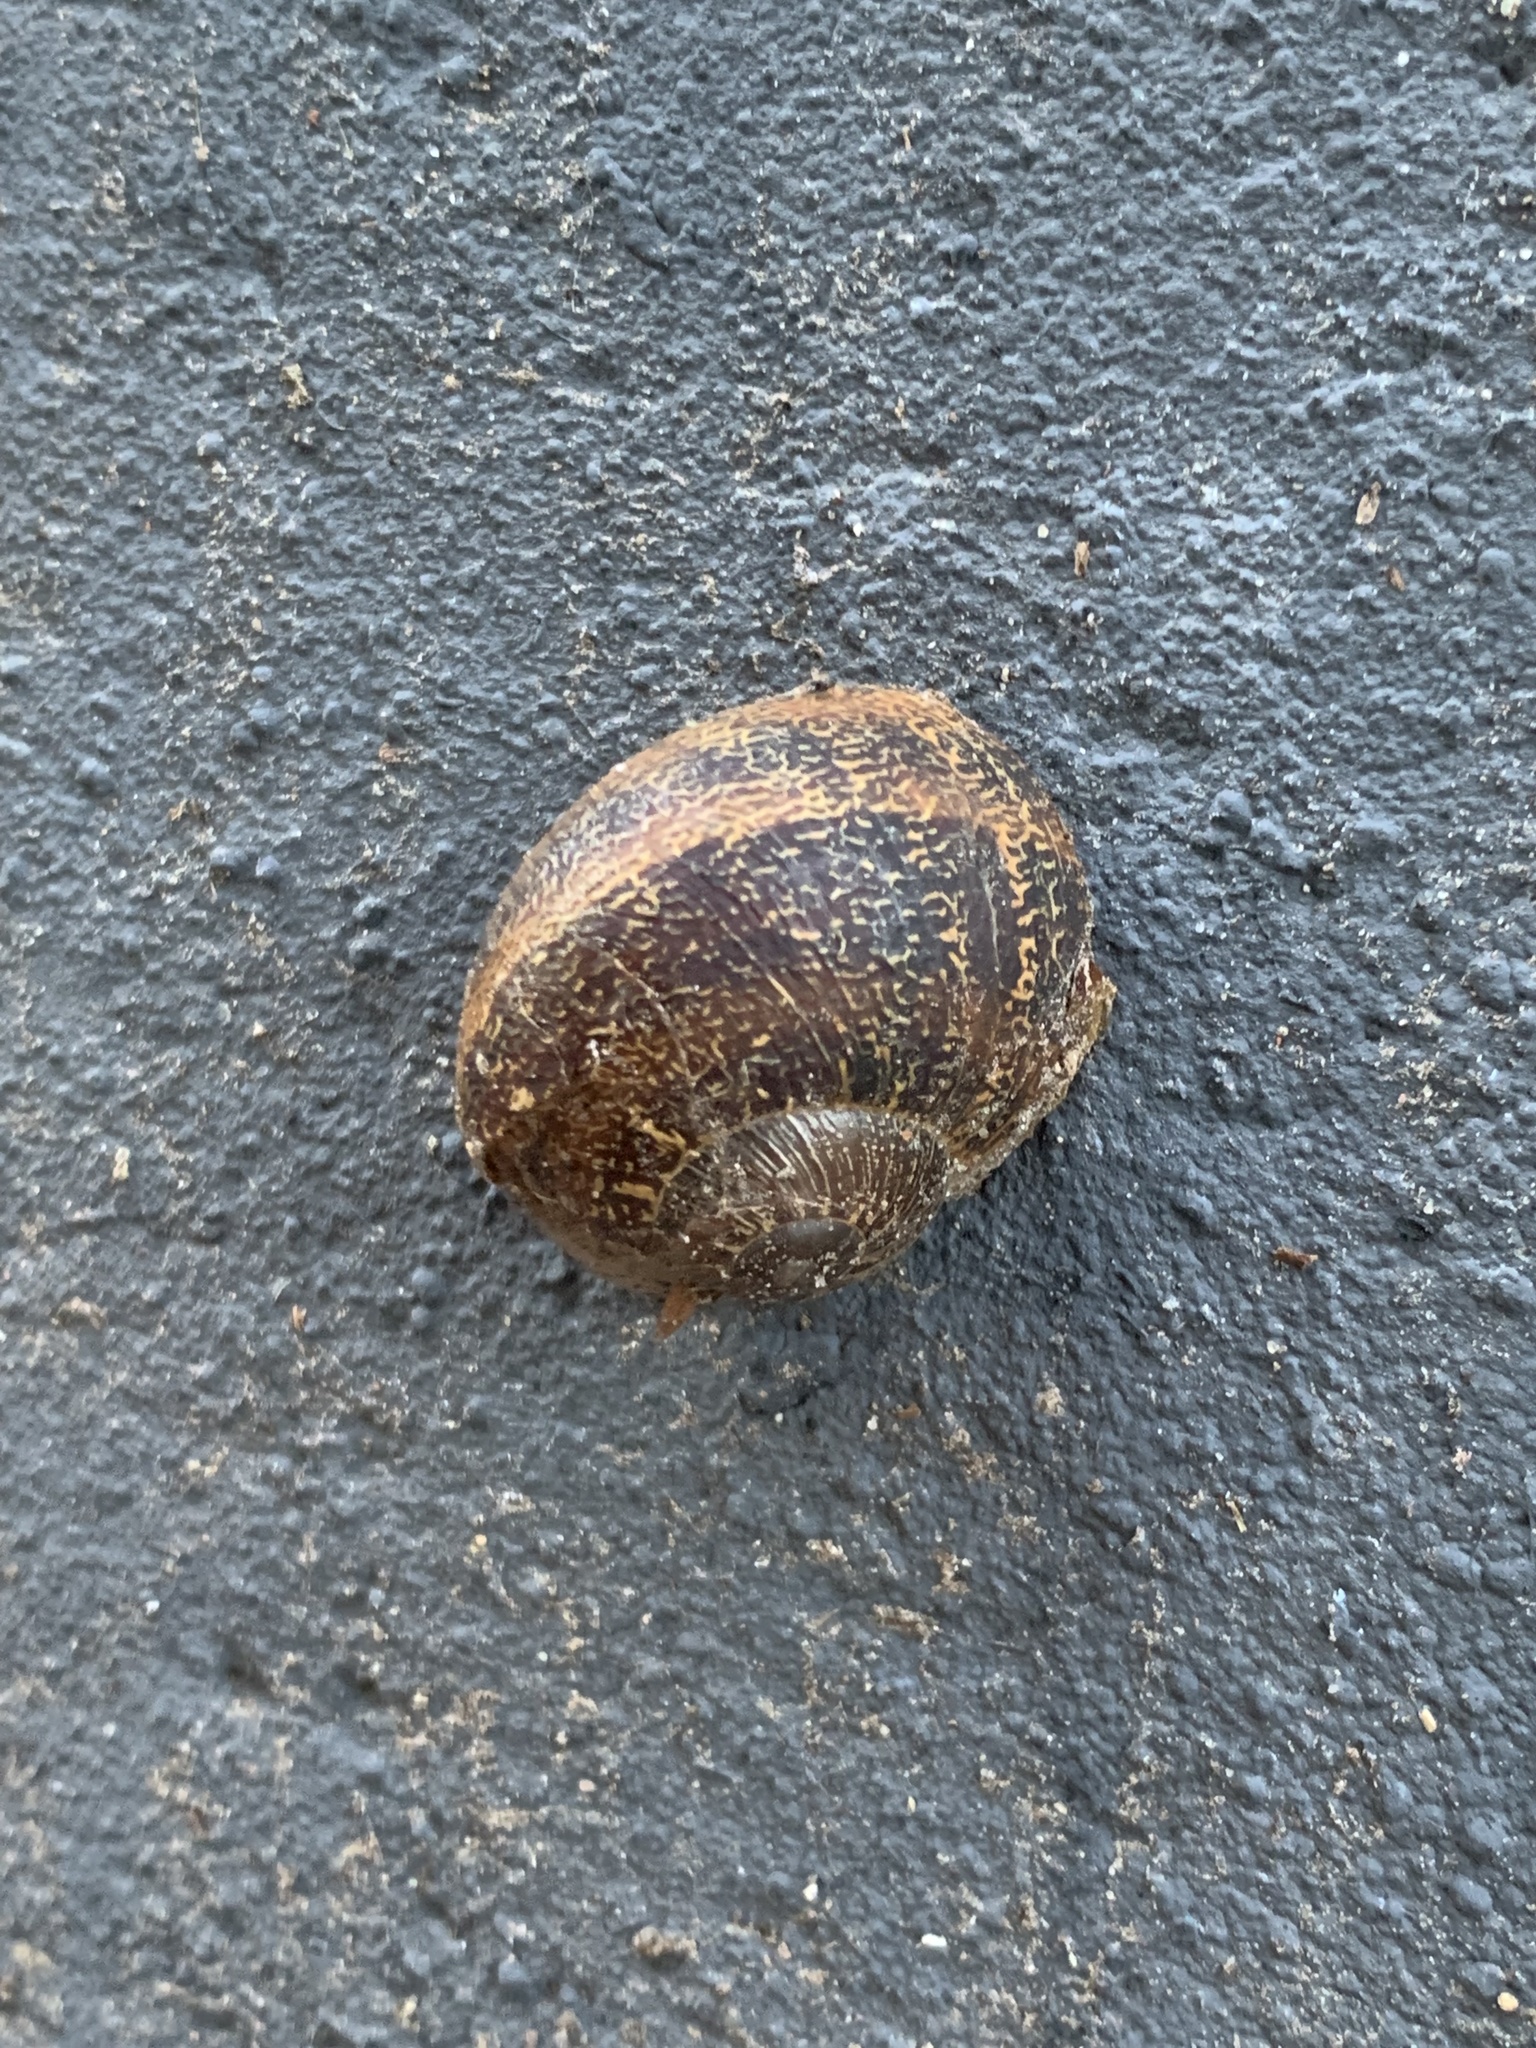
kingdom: Animalia
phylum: Mollusca
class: Gastropoda
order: Stylommatophora
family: Helicidae
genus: Cornu
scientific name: Cornu aspersum
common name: Brown garden snail
